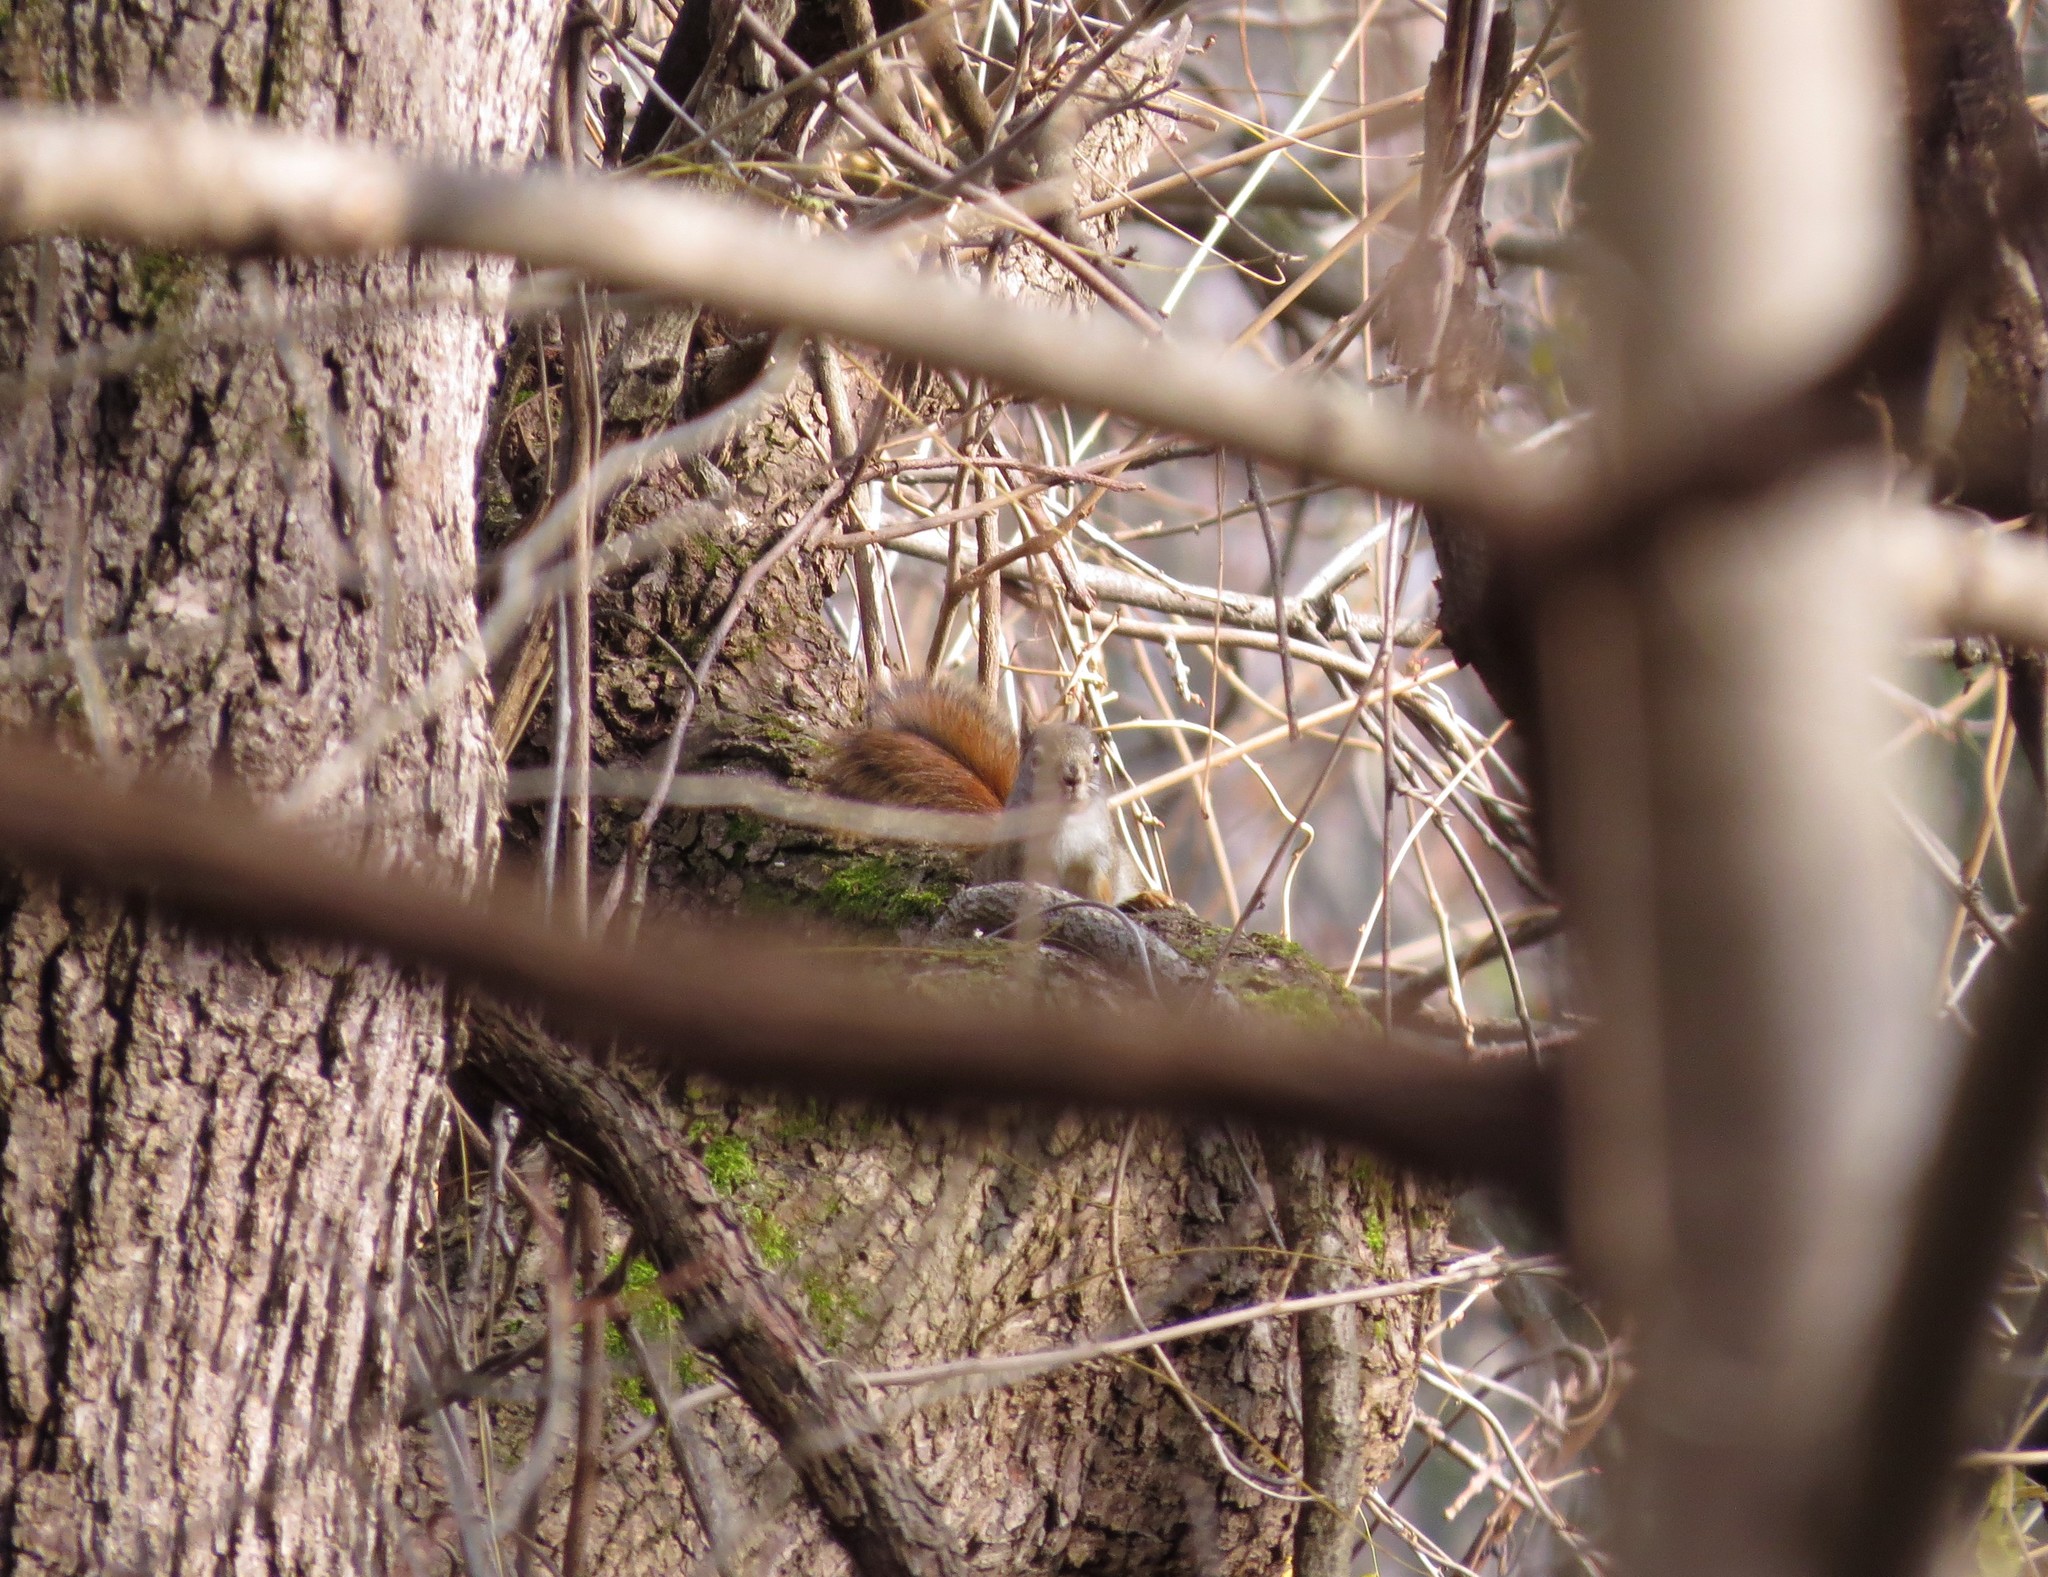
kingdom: Animalia
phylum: Chordata
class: Mammalia
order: Rodentia
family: Sciuridae
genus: Tamiasciurus
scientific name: Tamiasciurus hudsonicus
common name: Red squirrel
